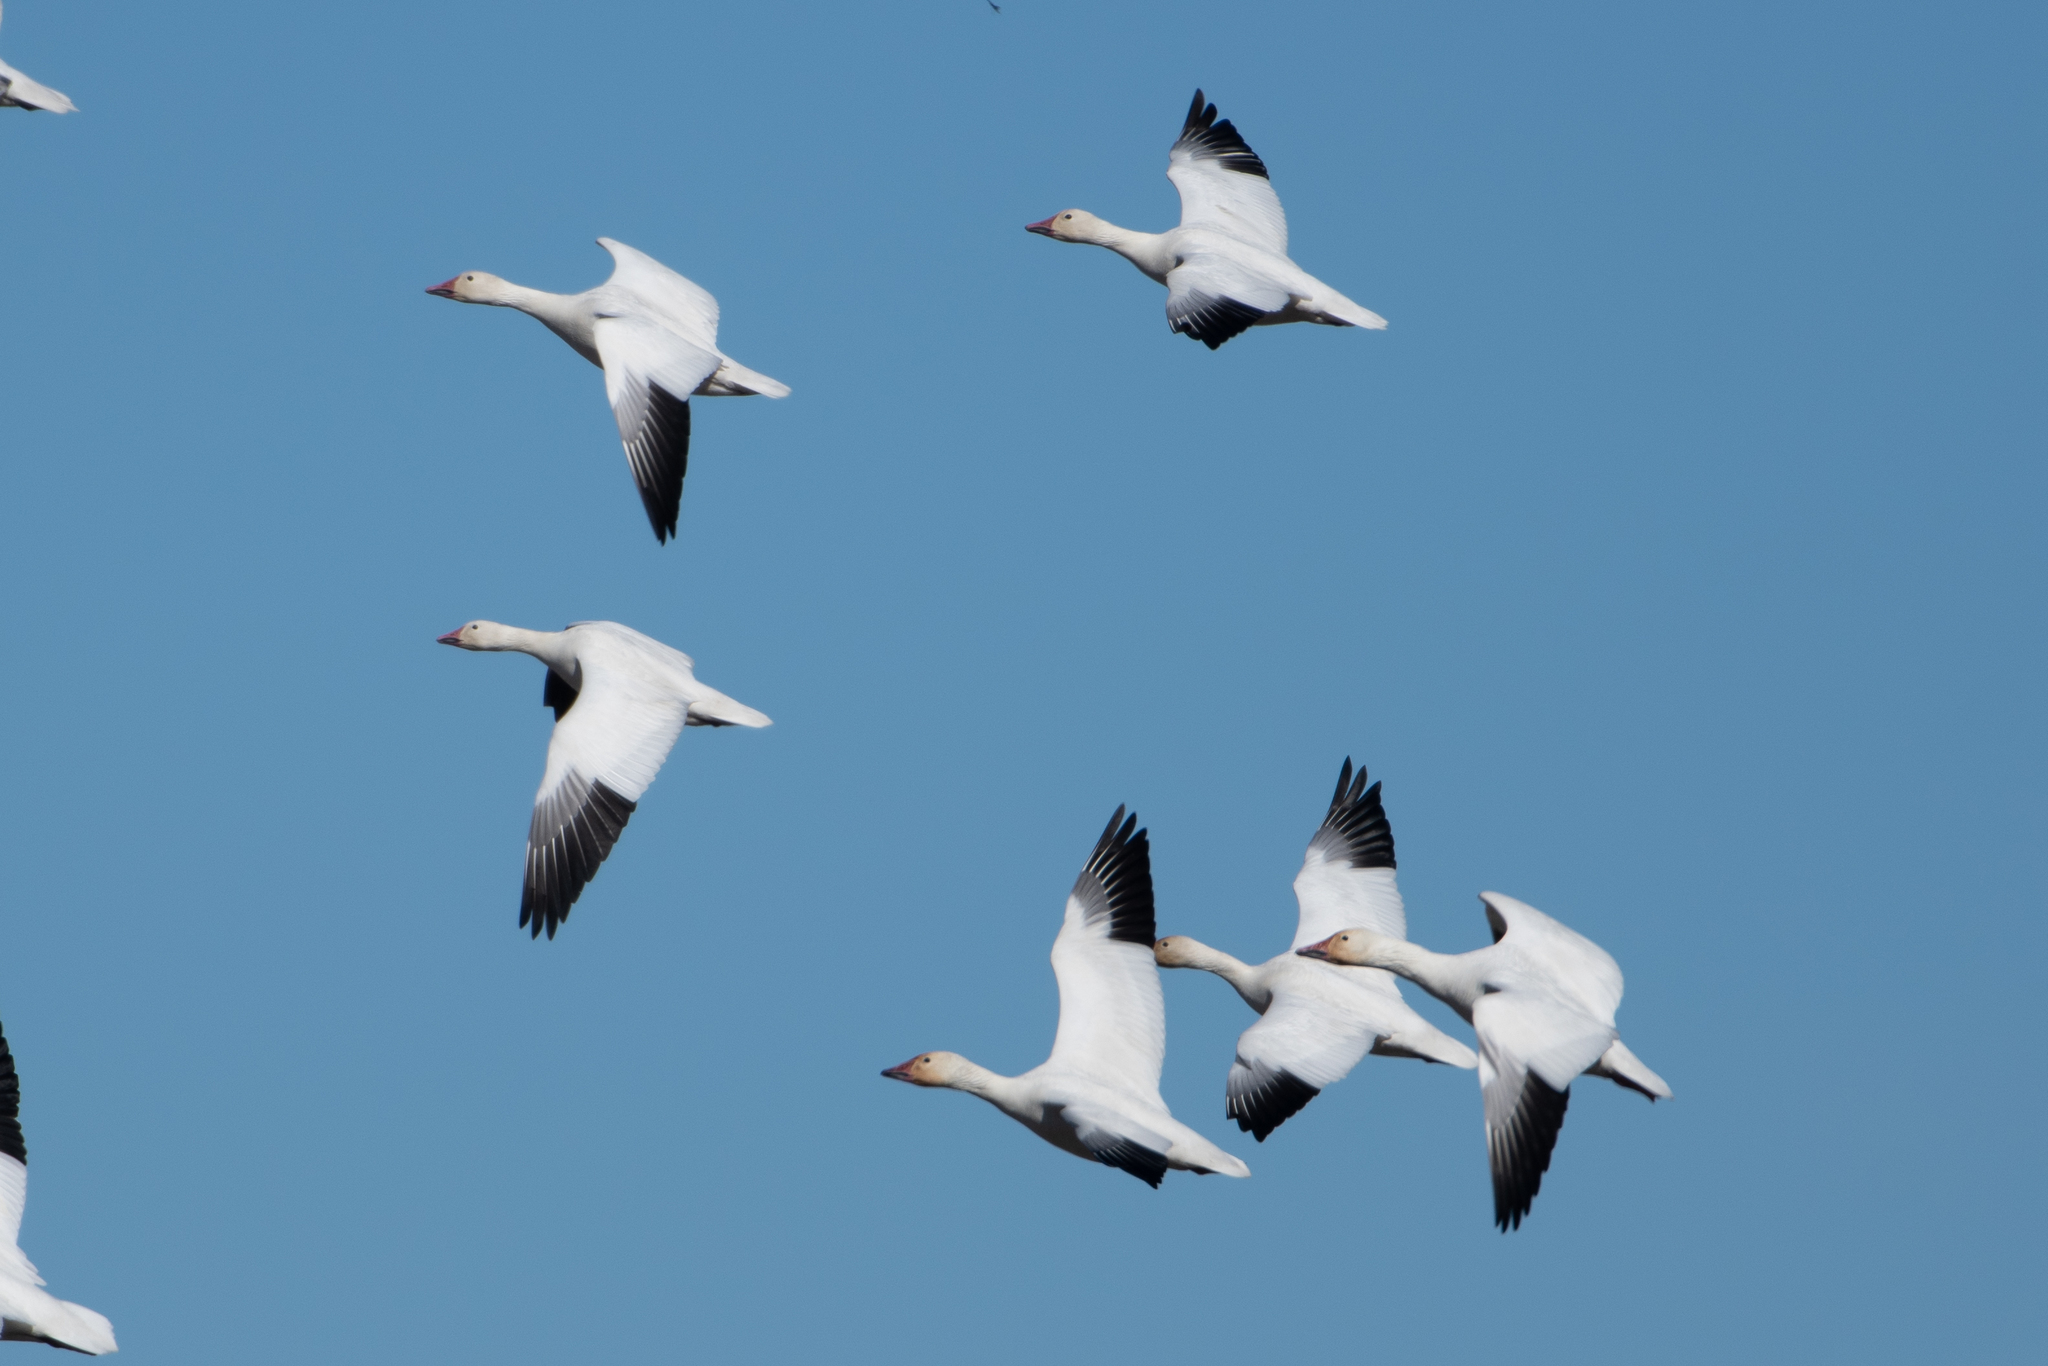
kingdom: Animalia
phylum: Chordata
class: Aves
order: Anseriformes
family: Anatidae
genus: Anser
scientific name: Anser caerulescens
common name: Snow goose
